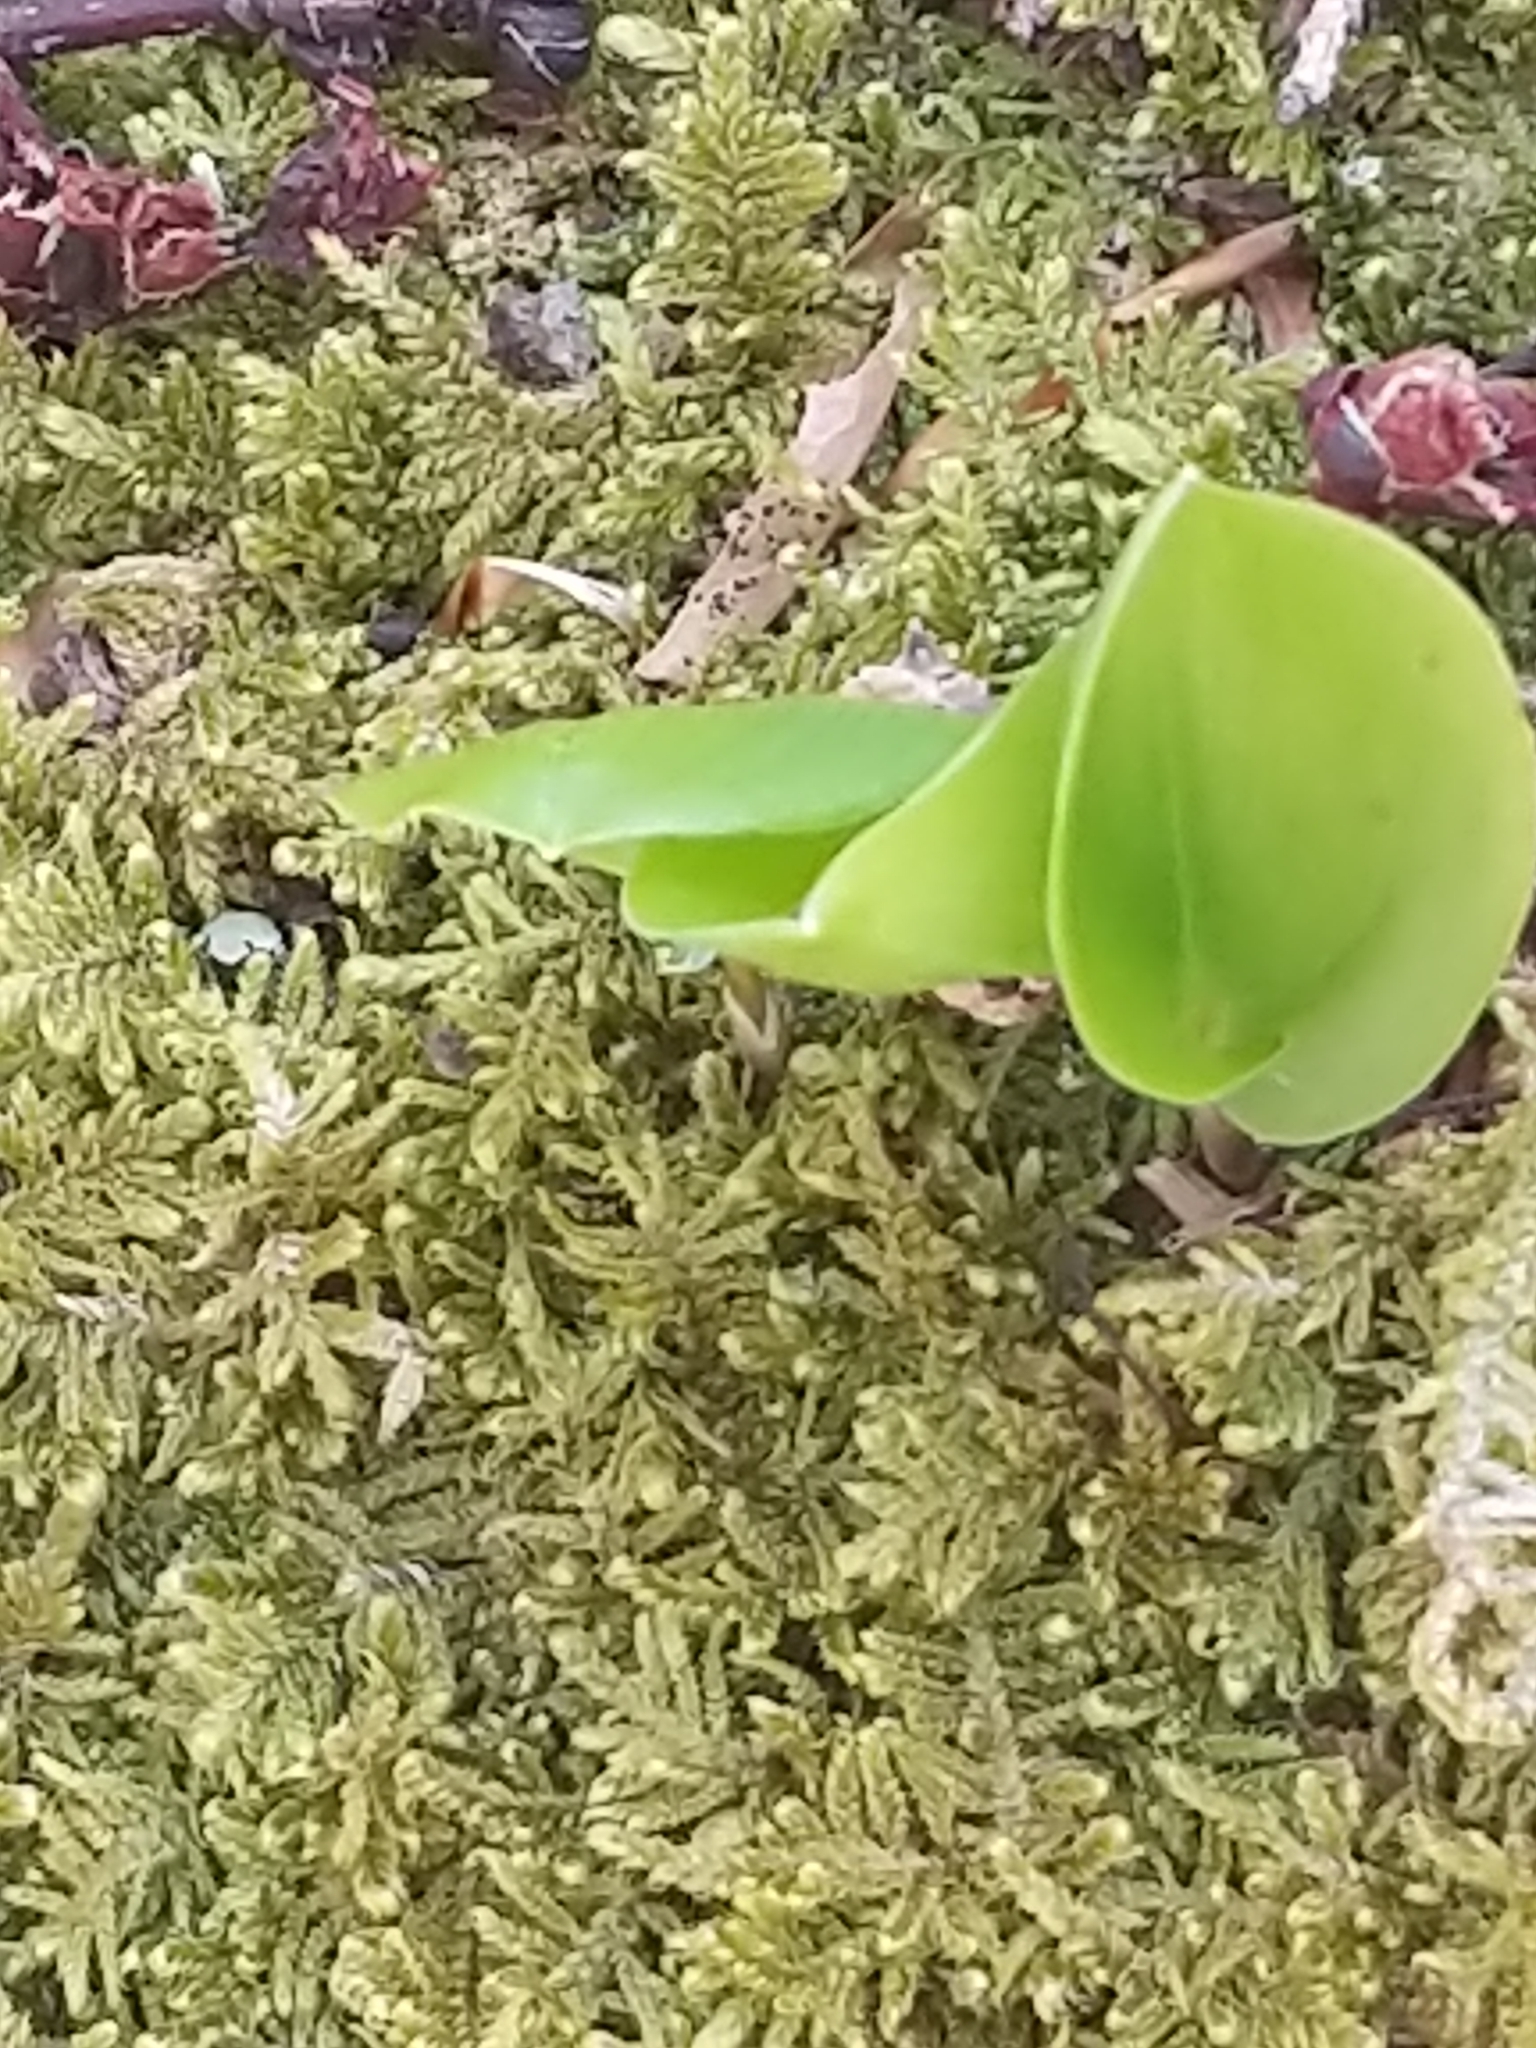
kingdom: Plantae
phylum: Tracheophyta
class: Liliopsida
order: Asparagales
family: Asparagaceae
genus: Maianthemum
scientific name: Maianthemum canadense
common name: False lily-of-the-valley
